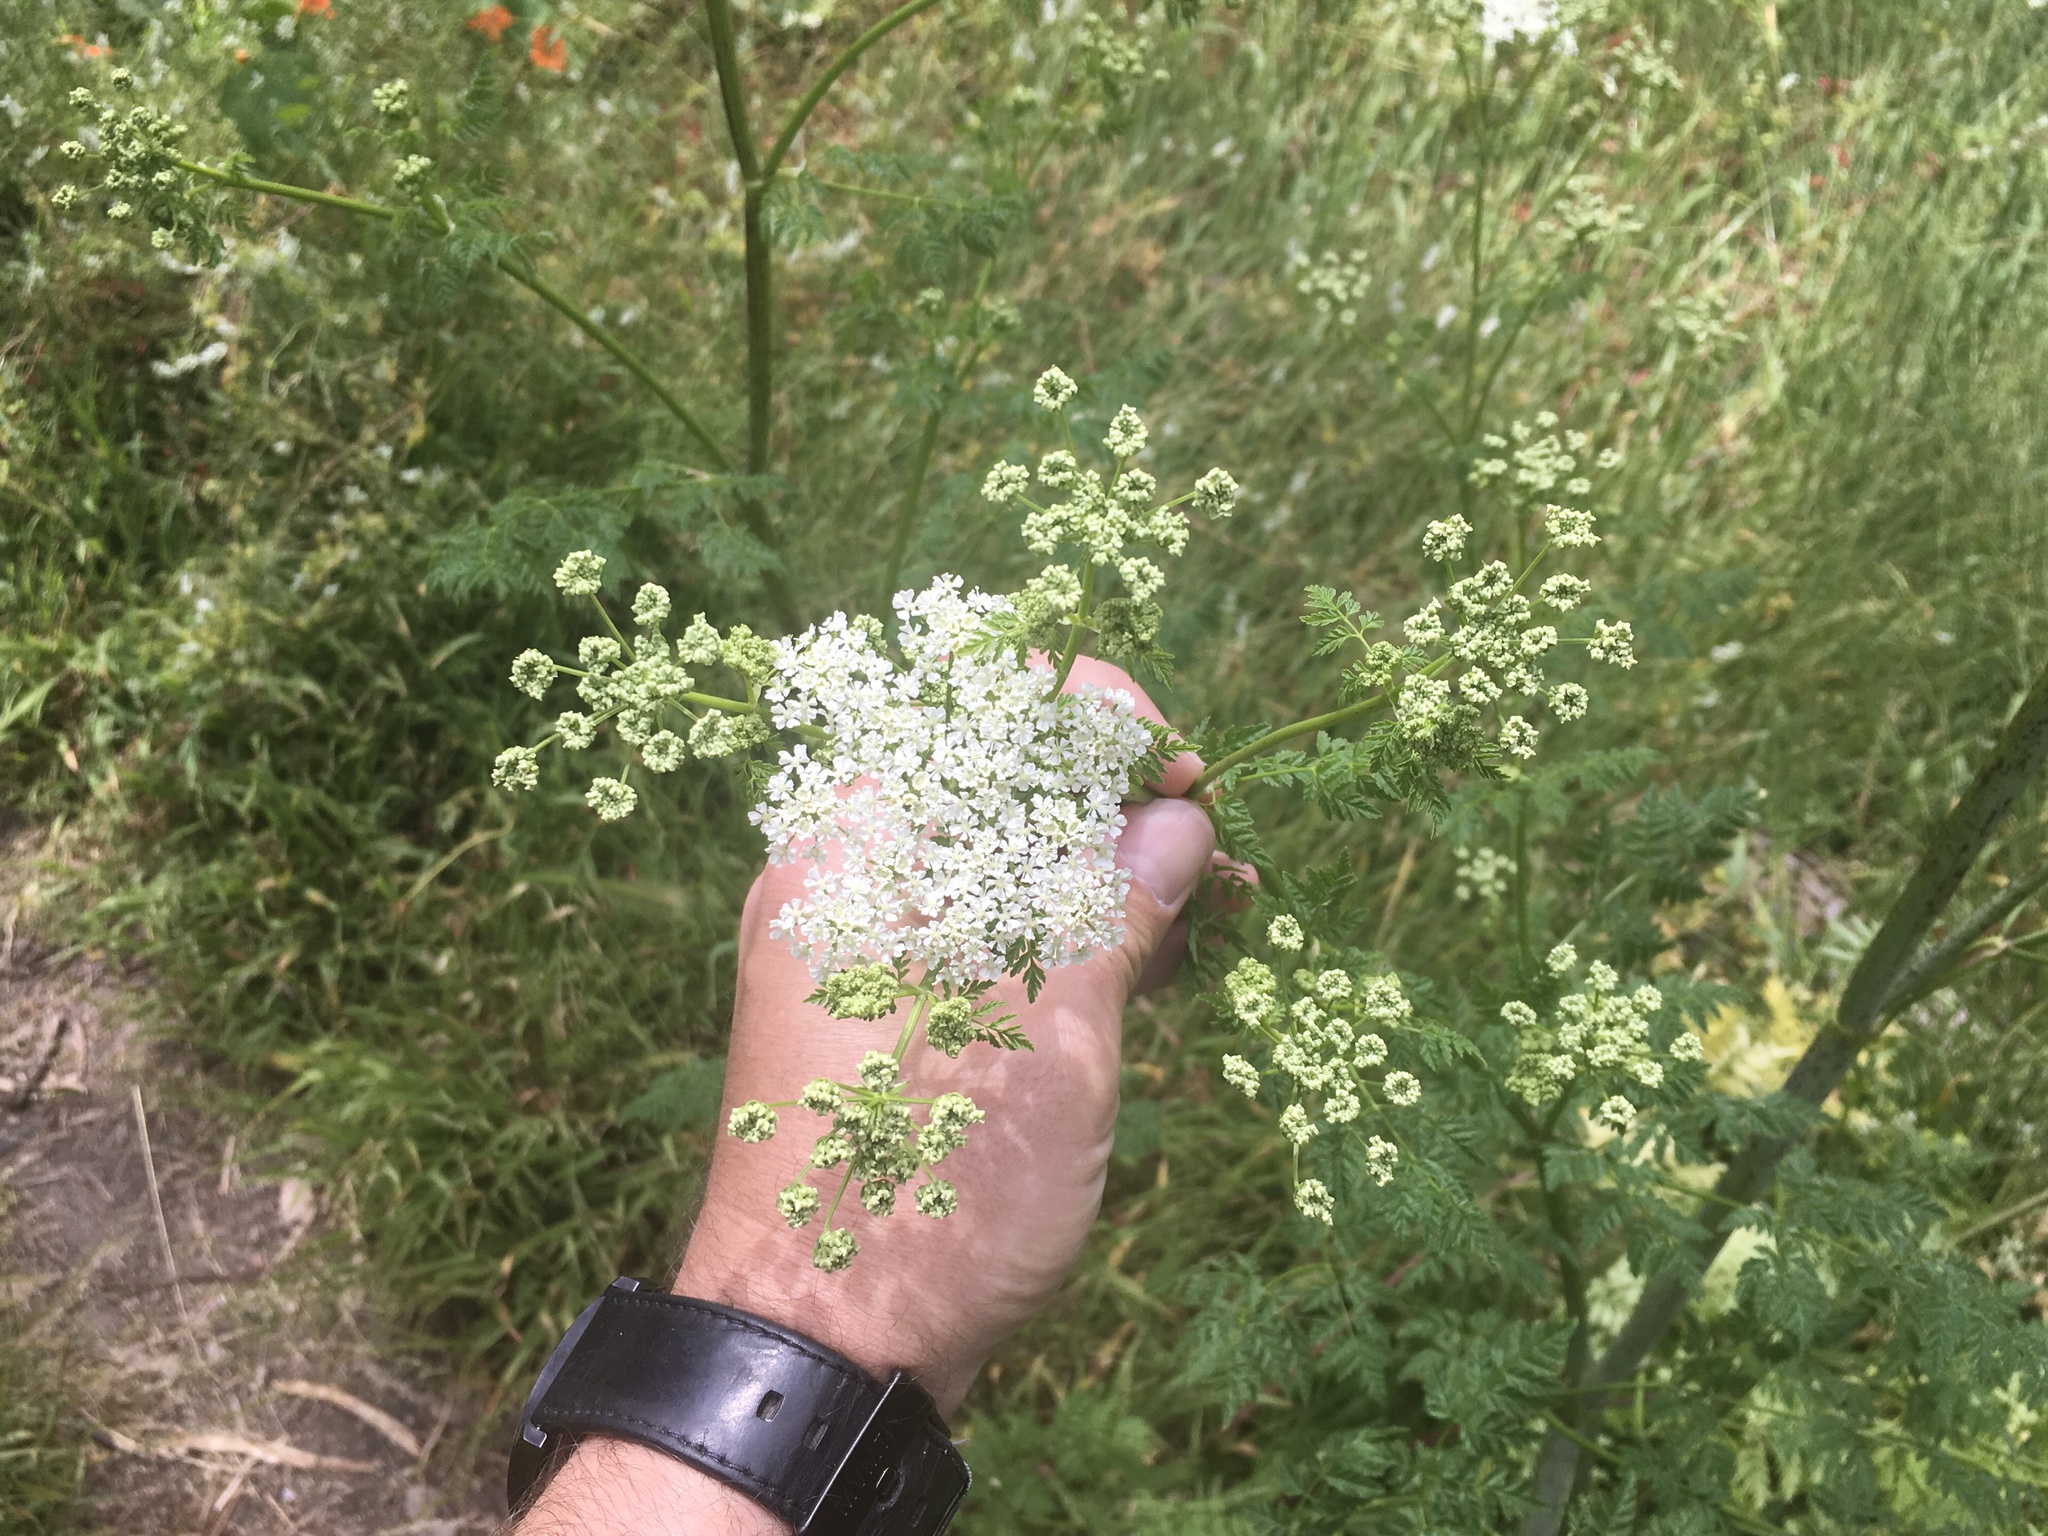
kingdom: Plantae
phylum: Tracheophyta
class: Magnoliopsida
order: Apiales
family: Apiaceae
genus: Conium
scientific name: Conium maculatum
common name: Hemlock
